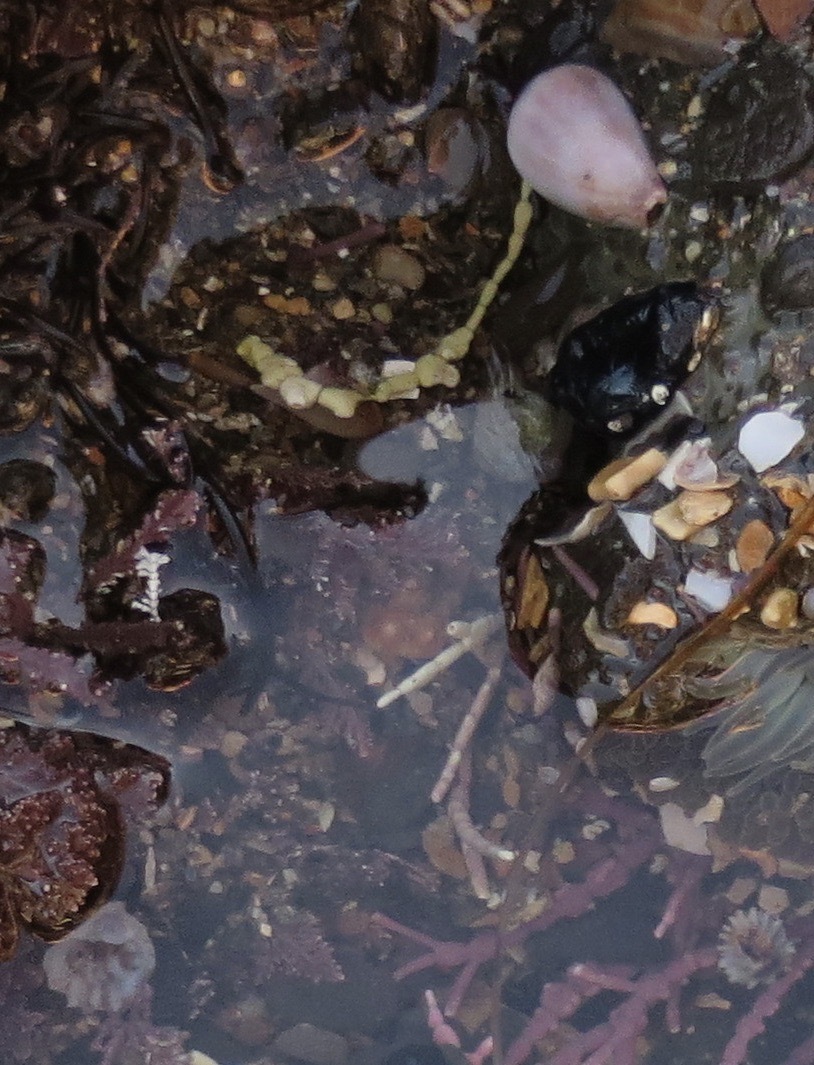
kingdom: Animalia
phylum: Mollusca
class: Gastropoda
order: Neogastropoda
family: Conidae
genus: Californiconus
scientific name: Californiconus californicus
